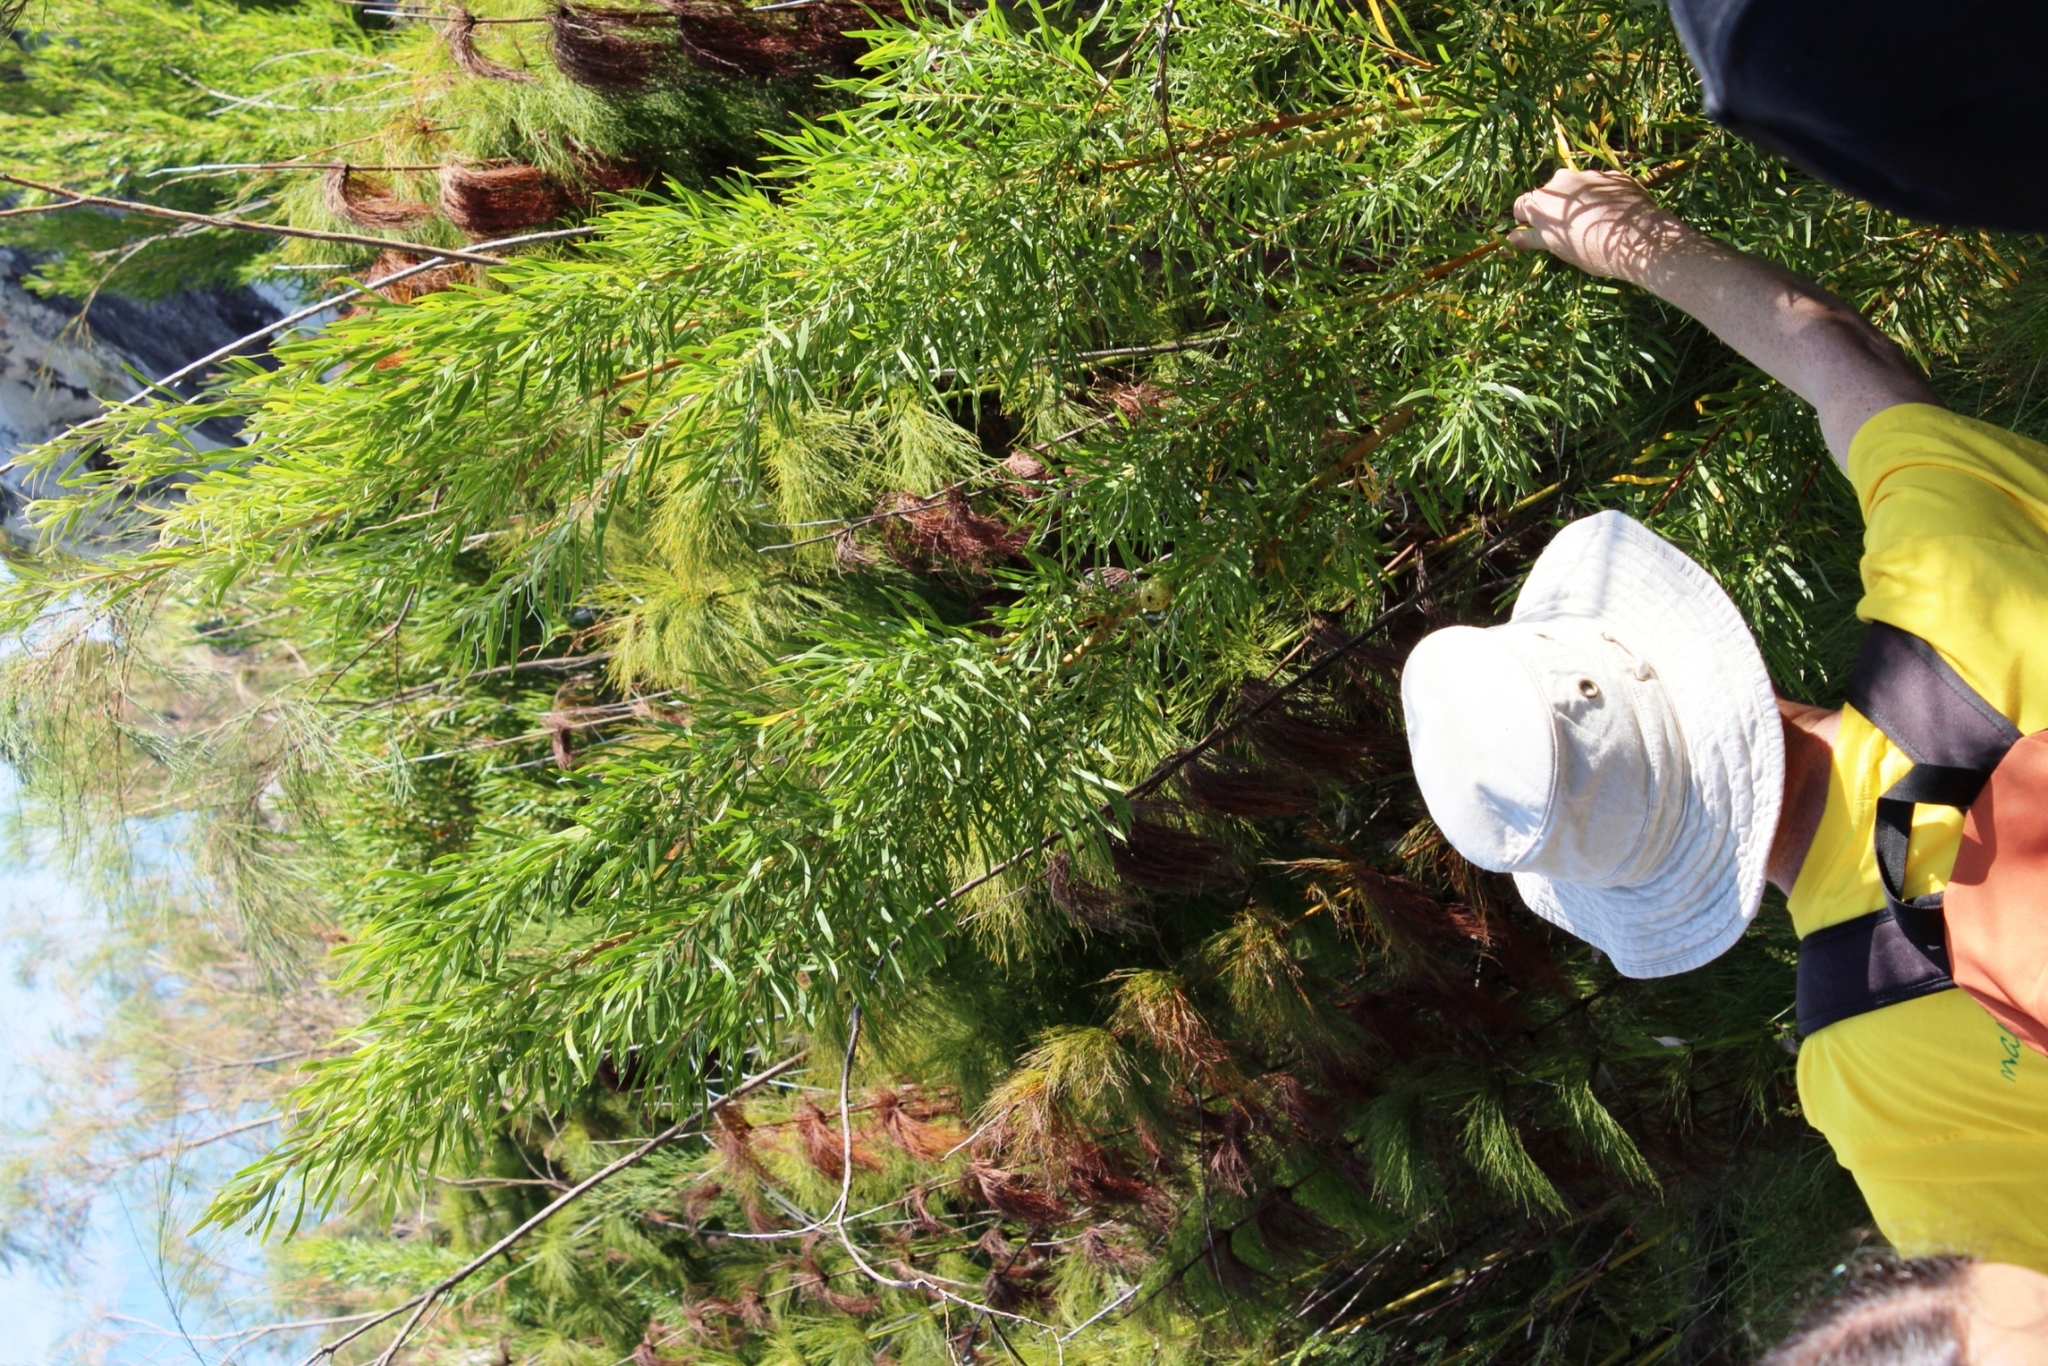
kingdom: Plantae
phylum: Tracheophyta
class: Magnoliopsida
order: Proteales
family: Proteaceae
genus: Leucadendron
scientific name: Leucadendron salicifolium
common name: Common stream conebush
